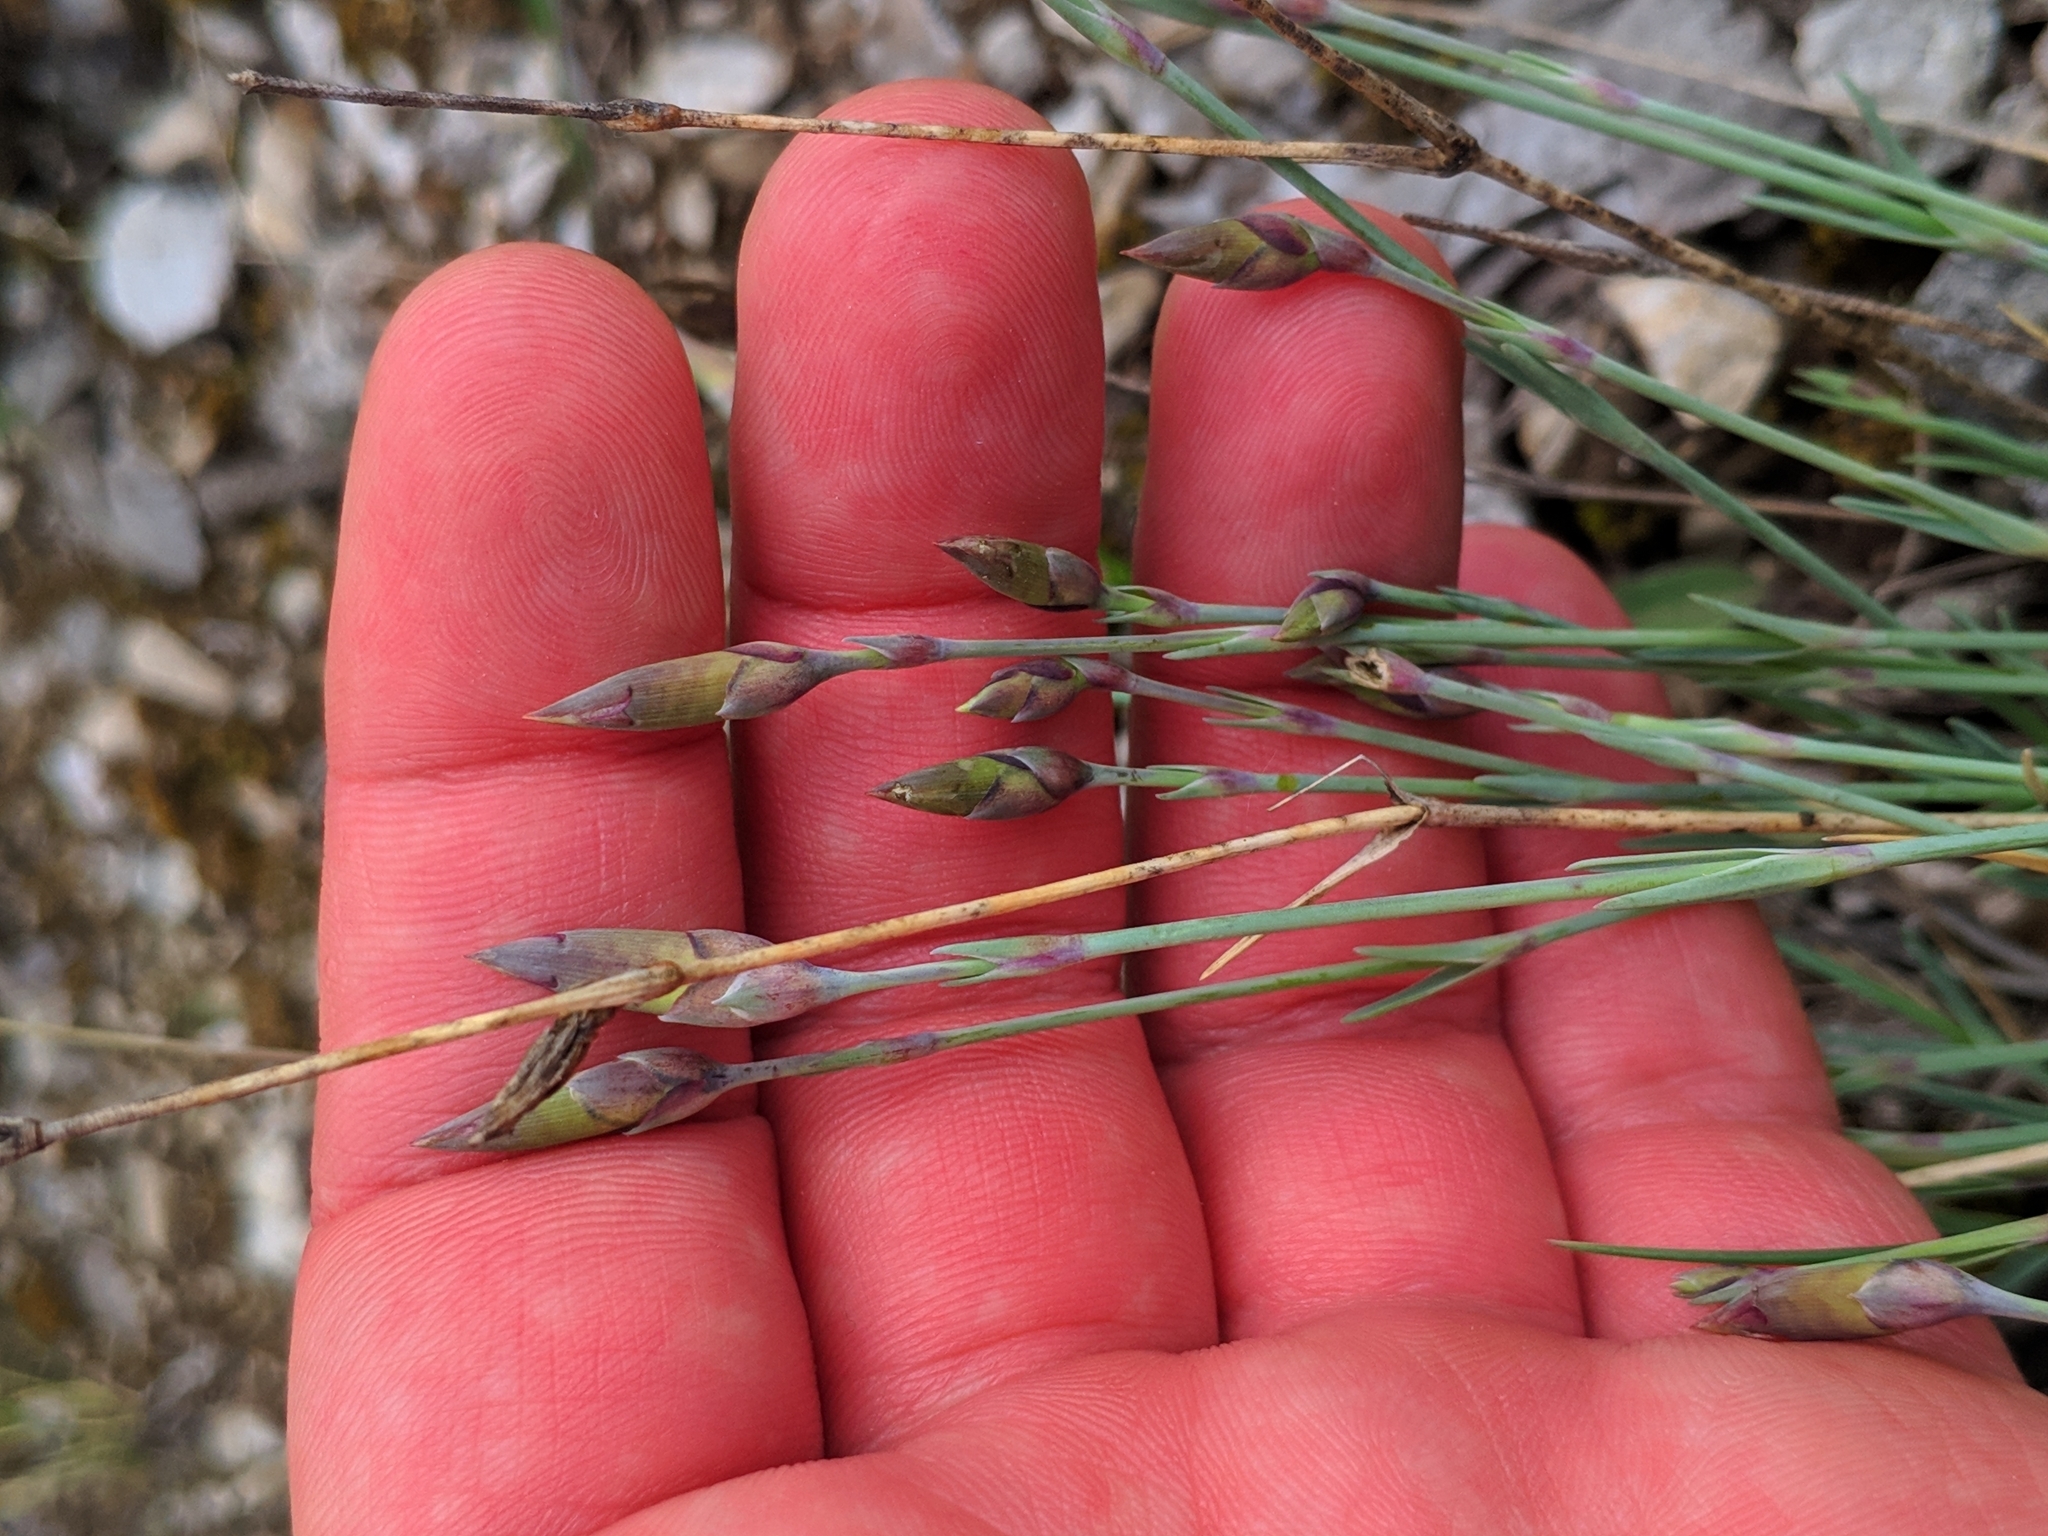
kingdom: Plantae
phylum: Tracheophyta
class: Magnoliopsida
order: Caryophyllales
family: Caryophyllaceae
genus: Dianthus
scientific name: Dianthus praecox
